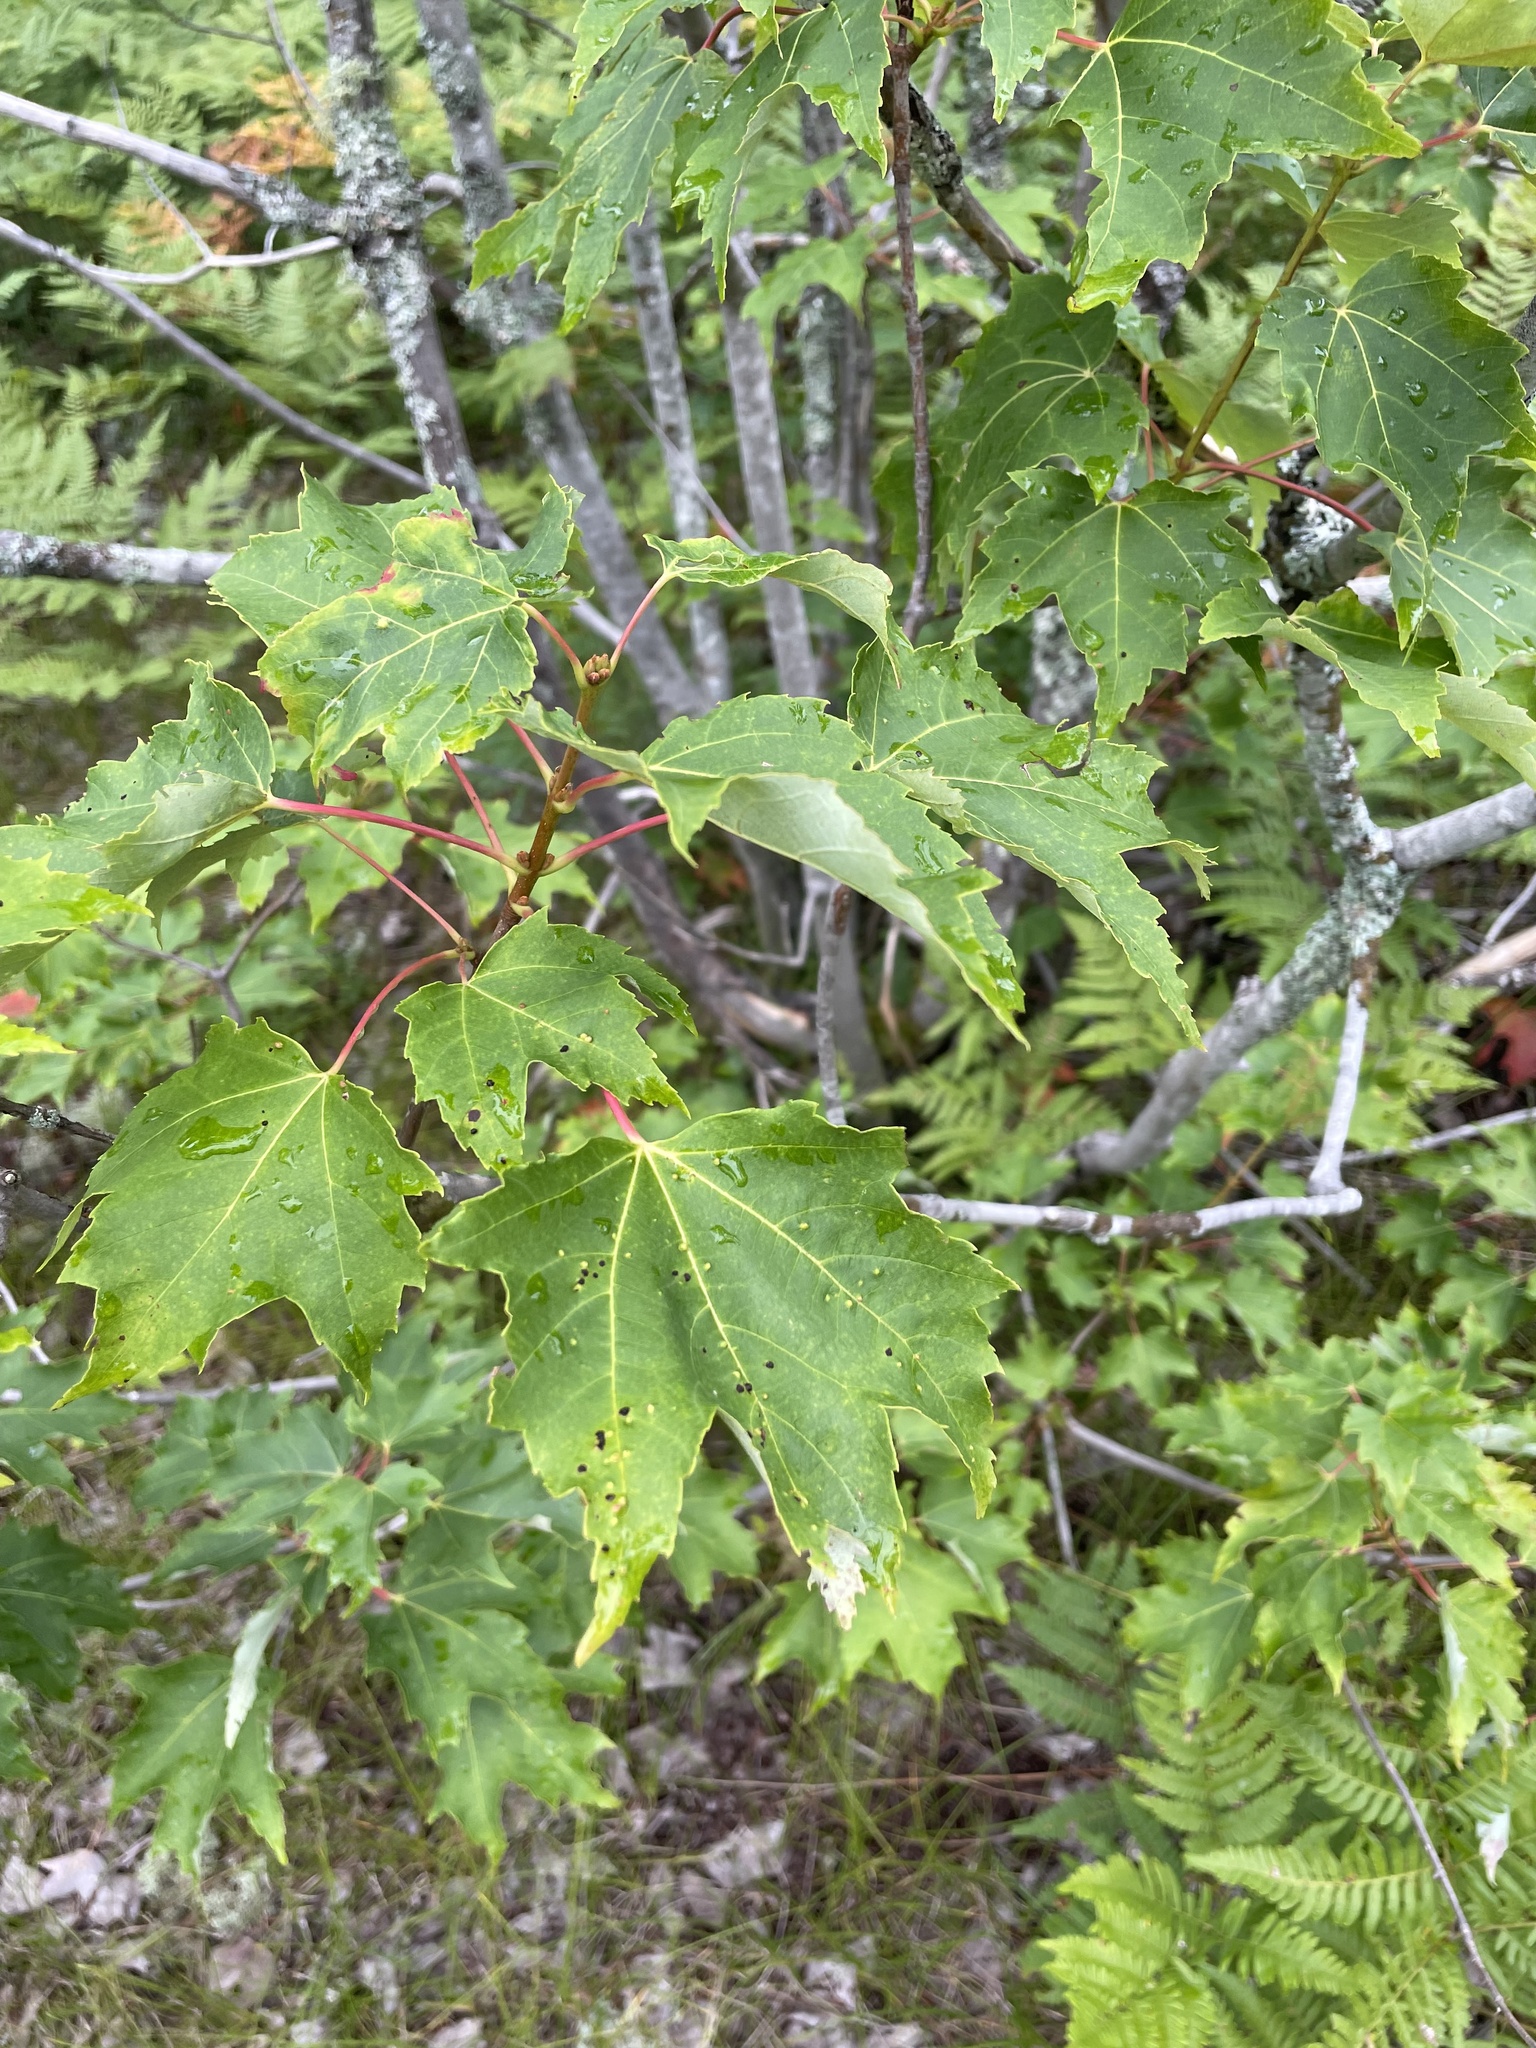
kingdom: Plantae
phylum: Tracheophyta
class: Magnoliopsida
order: Sapindales
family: Sapindaceae
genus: Acer
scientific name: Acer rubrum
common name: Red maple
